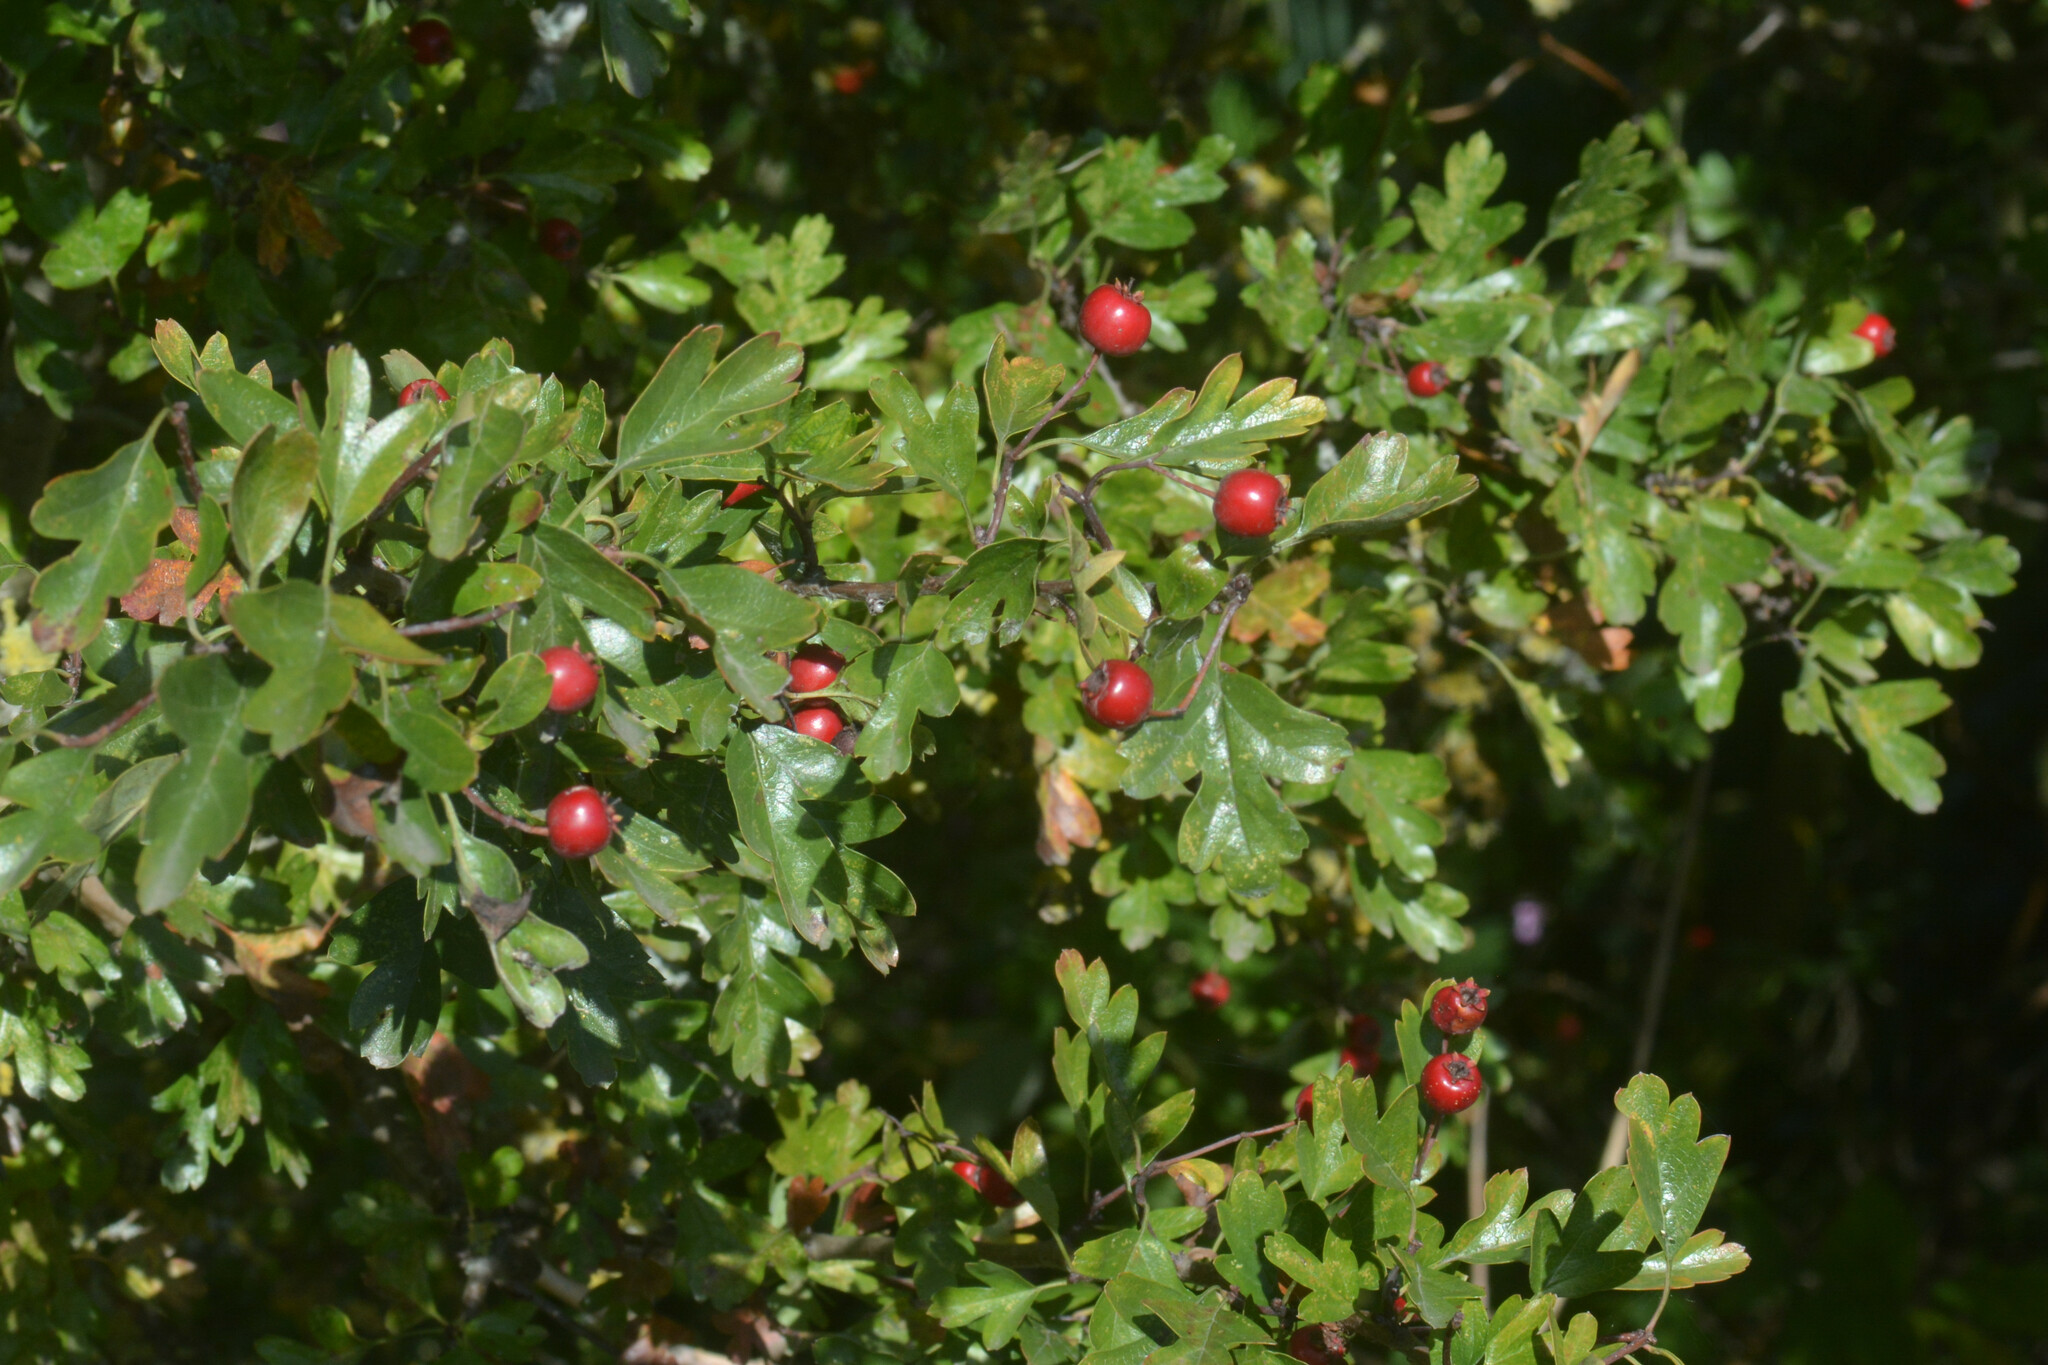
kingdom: Plantae
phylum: Tracheophyta
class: Magnoliopsida
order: Rosales
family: Rosaceae
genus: Crataegus
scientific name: Crataegus monogyna
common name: Hawthorn
